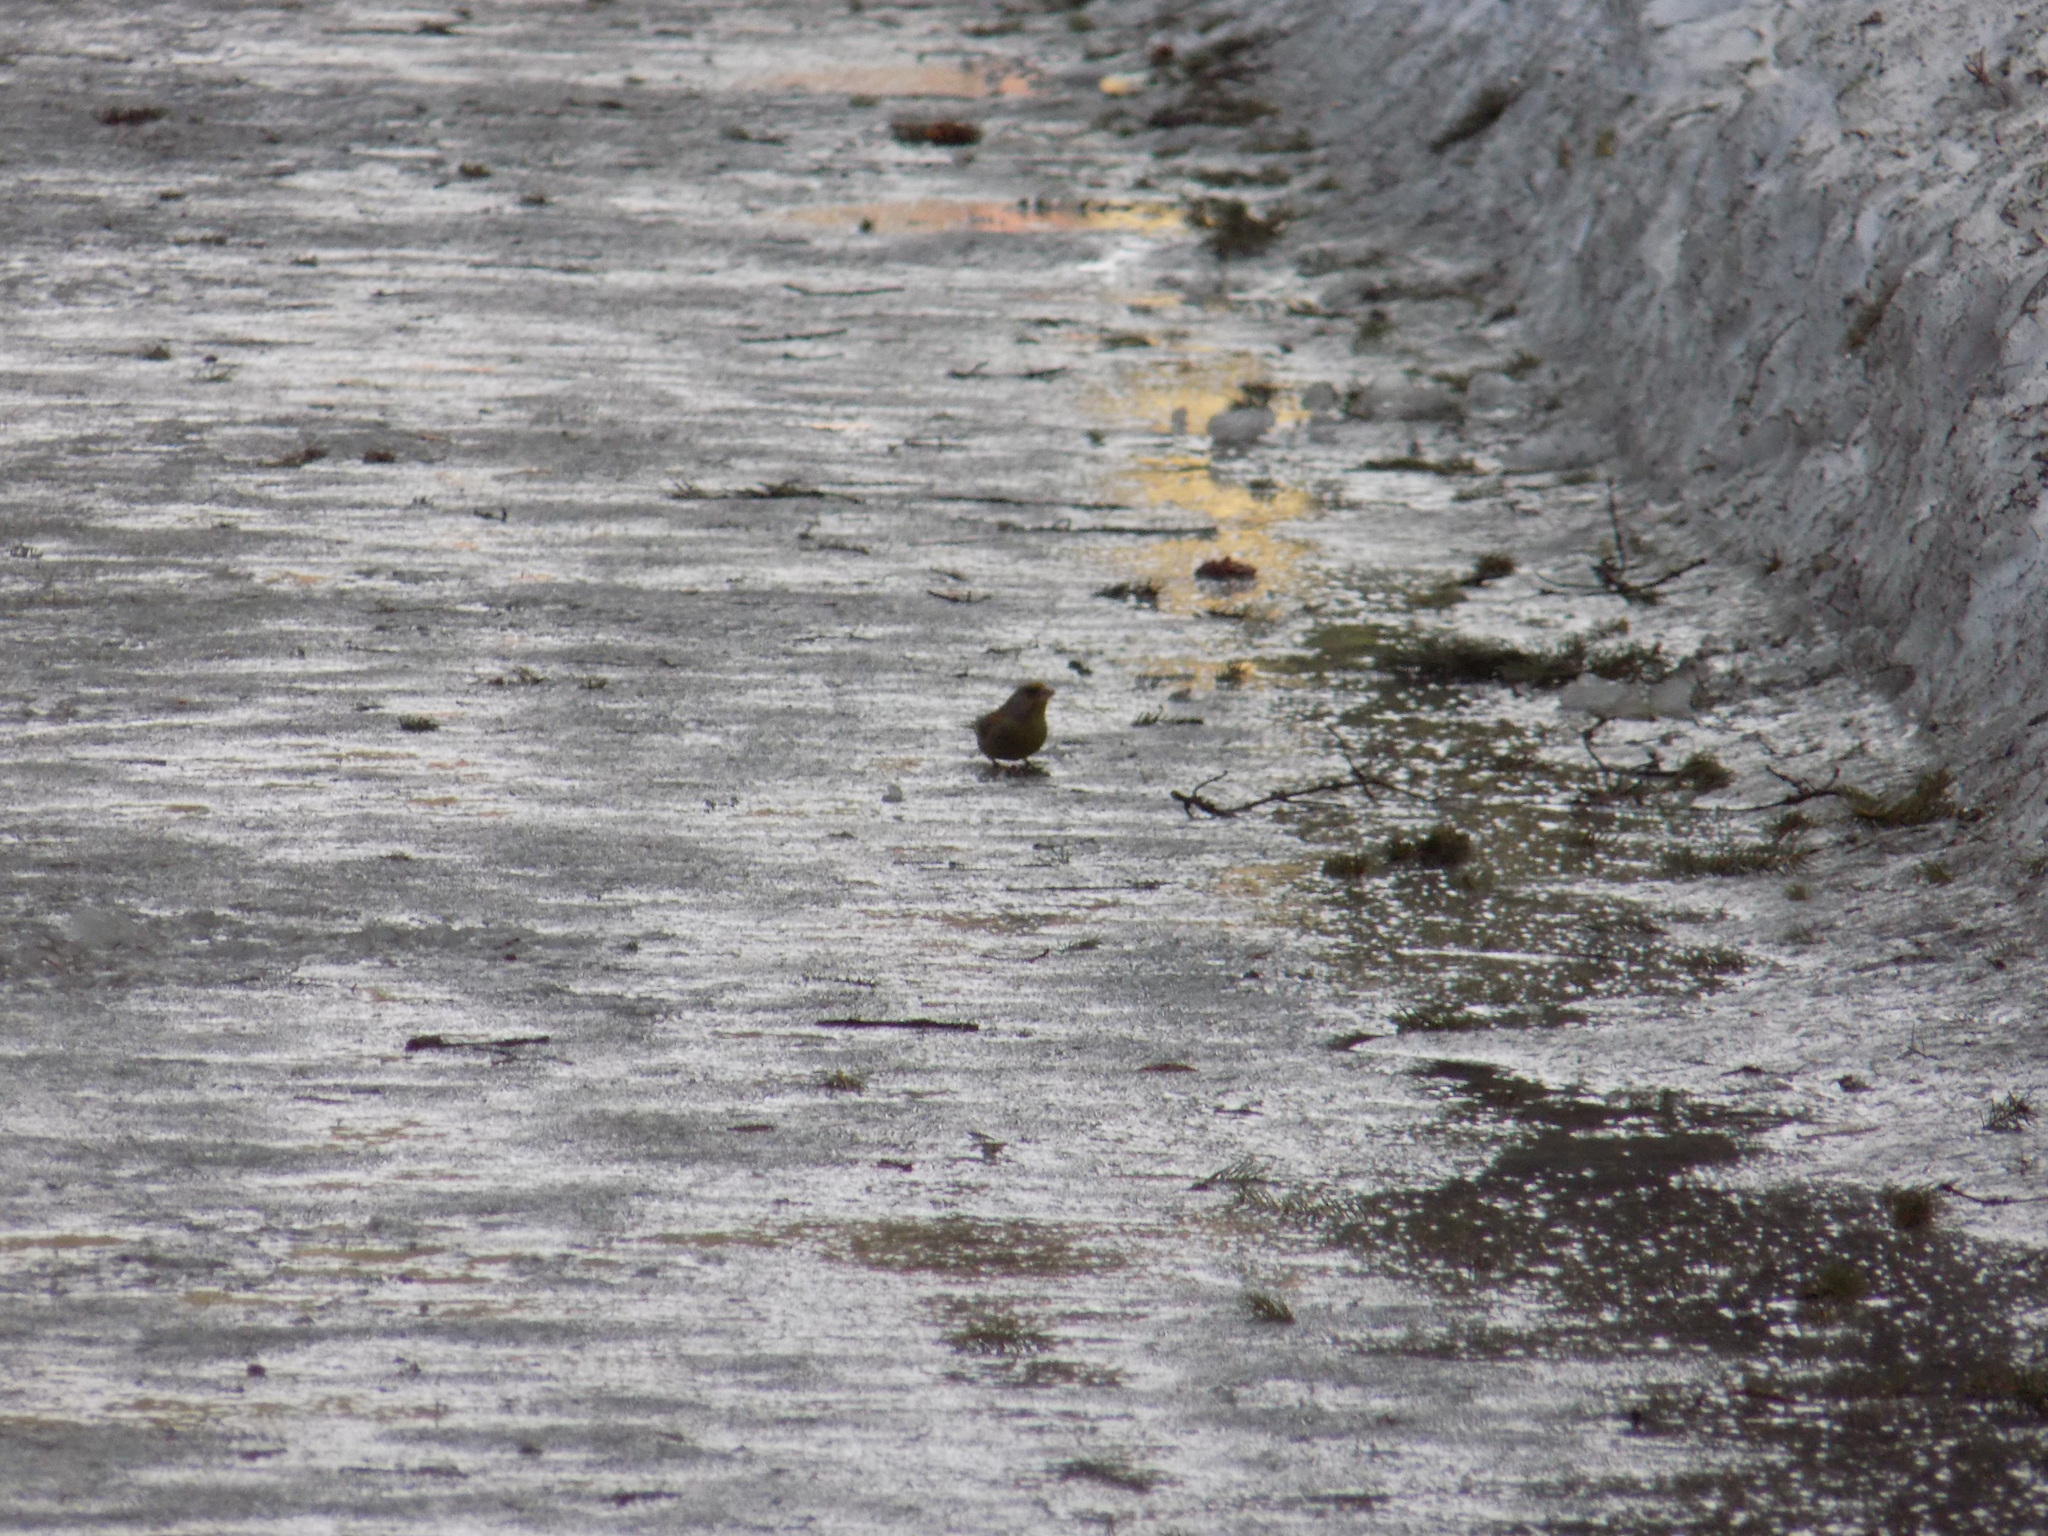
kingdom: Plantae
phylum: Tracheophyta
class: Liliopsida
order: Poales
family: Poaceae
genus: Chloris
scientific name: Chloris chloris
